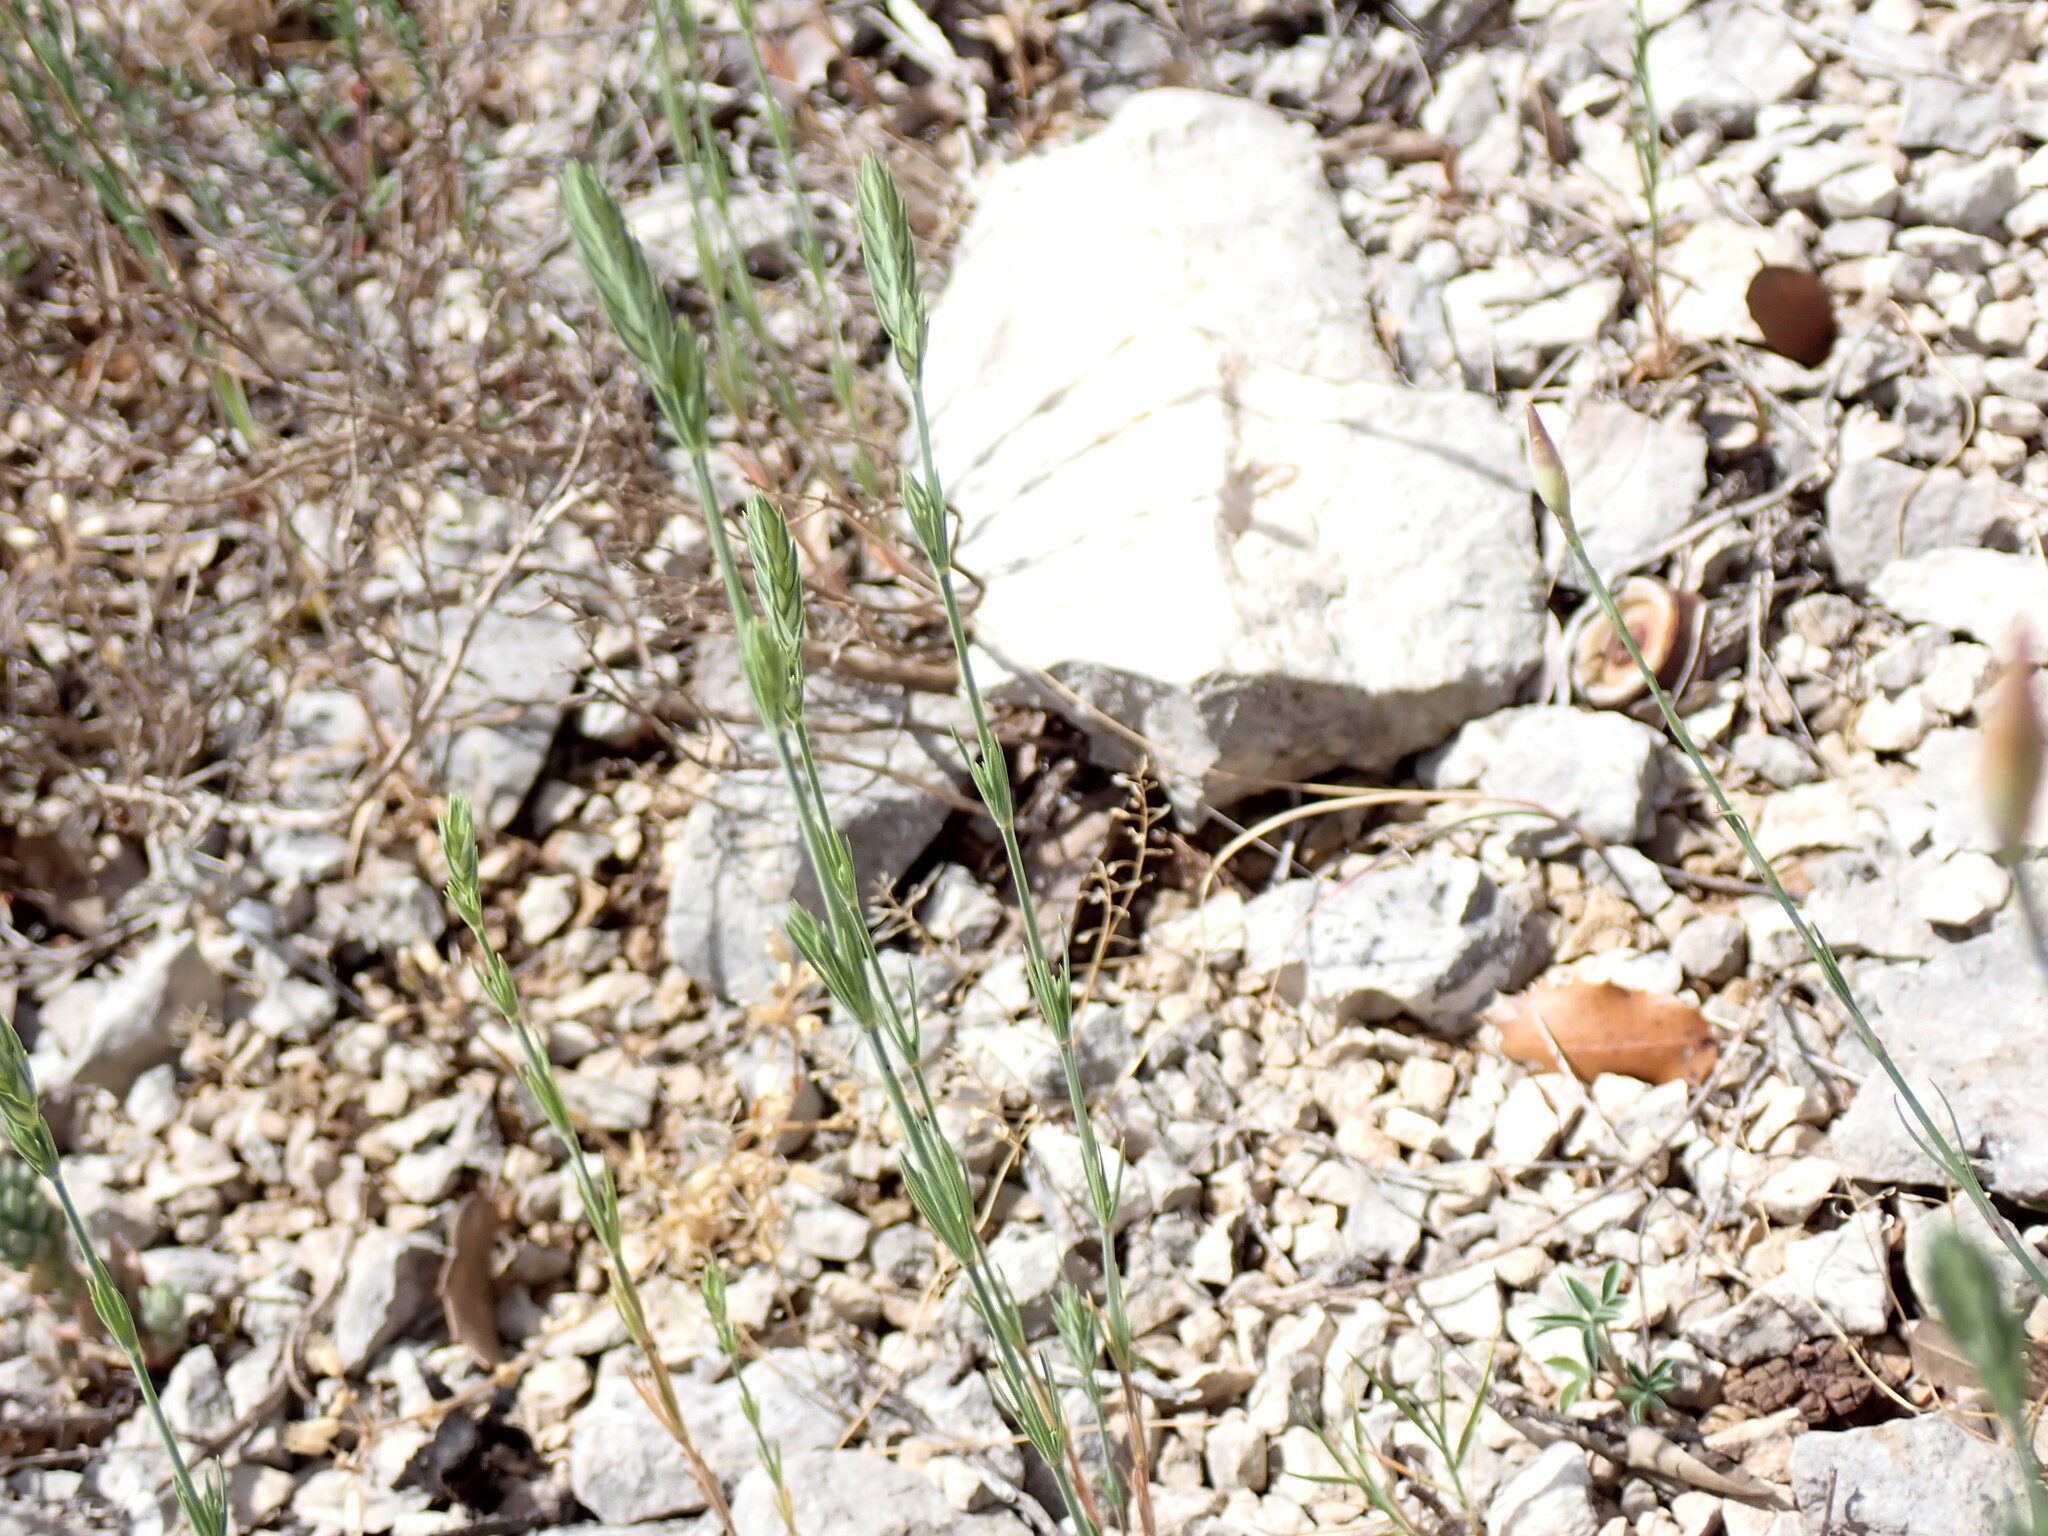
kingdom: Plantae
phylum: Tracheophyta
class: Magnoliopsida
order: Gentianales
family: Rubiaceae
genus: Crucianella
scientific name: Crucianella angustifolia
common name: Narrowleaf crucianella
